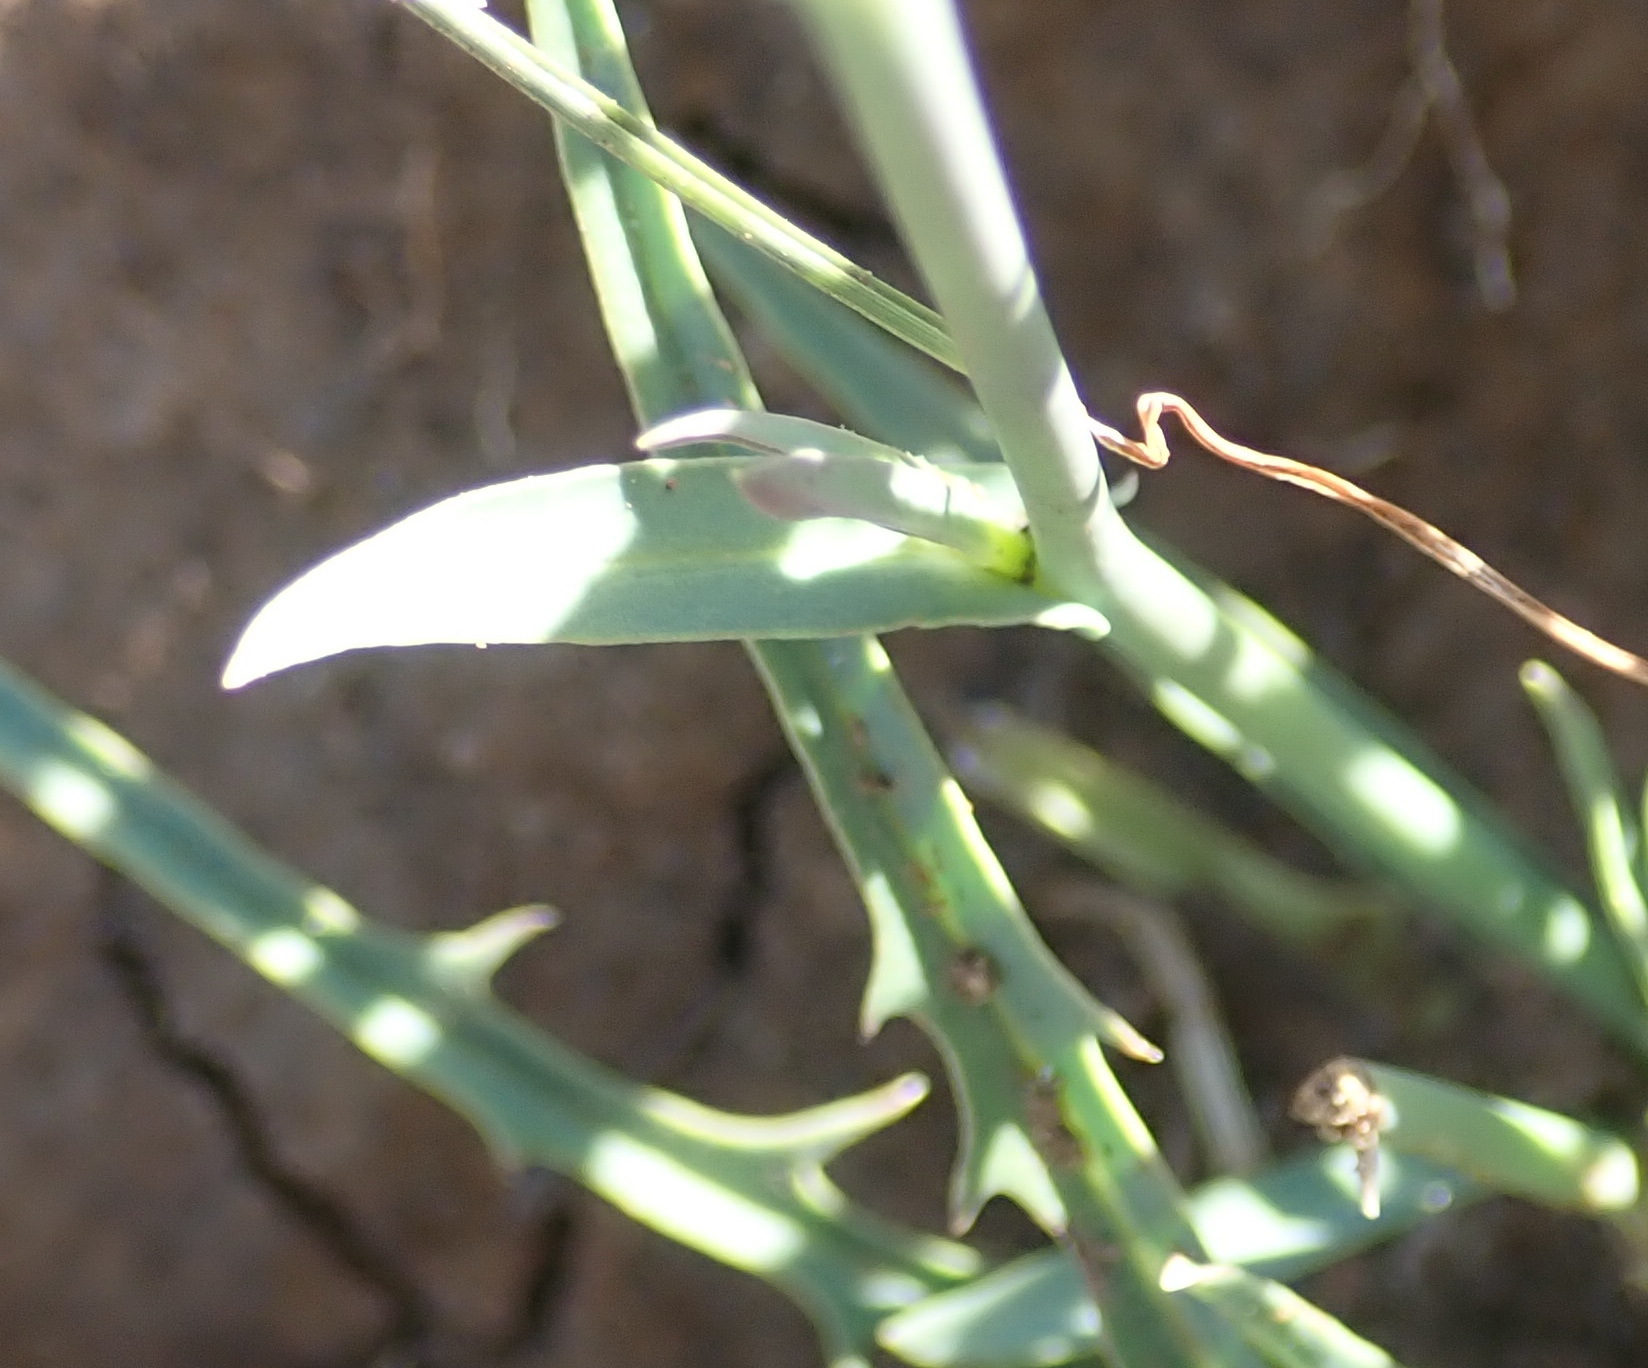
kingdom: Plantae
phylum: Tracheophyta
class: Magnoliopsida
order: Asterales
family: Asteraceae
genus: Lactuca
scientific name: Lactuca inermis
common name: Wild lettuce
